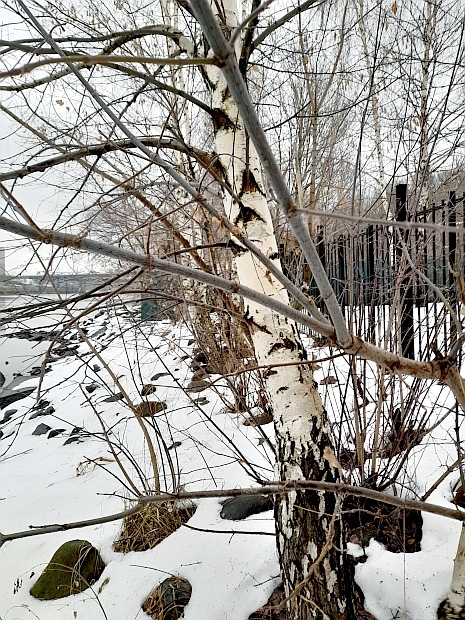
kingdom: Plantae
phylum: Tracheophyta
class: Magnoliopsida
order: Fagales
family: Betulaceae
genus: Betula
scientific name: Betula pendula
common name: Silver birch
